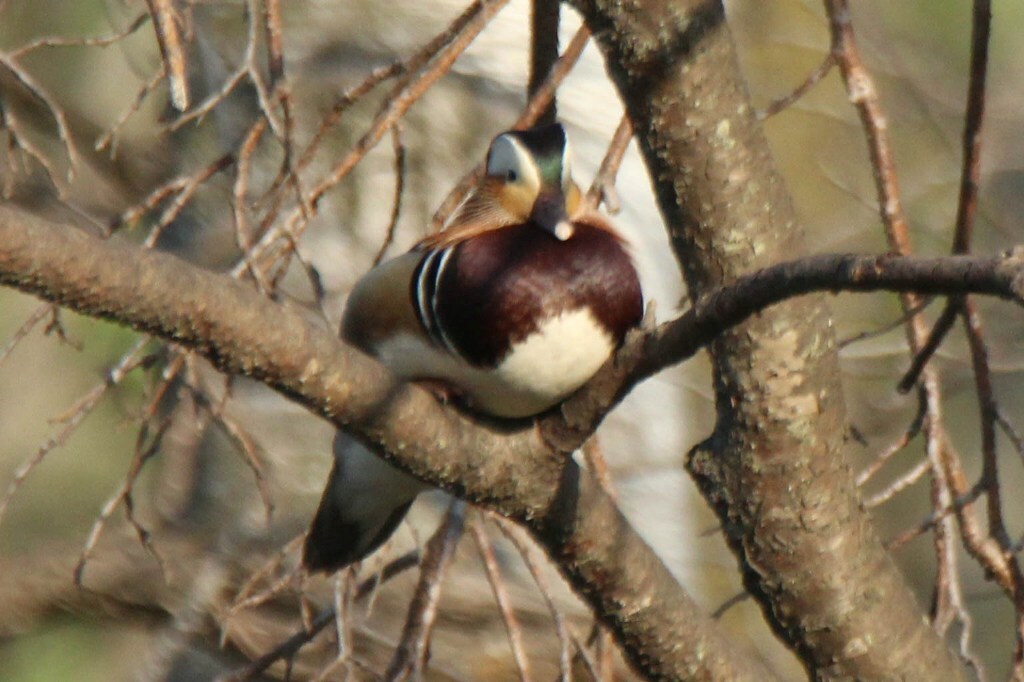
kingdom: Animalia
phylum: Chordata
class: Aves
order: Anseriformes
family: Anatidae
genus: Aix
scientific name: Aix galericulata
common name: Mandarin duck
